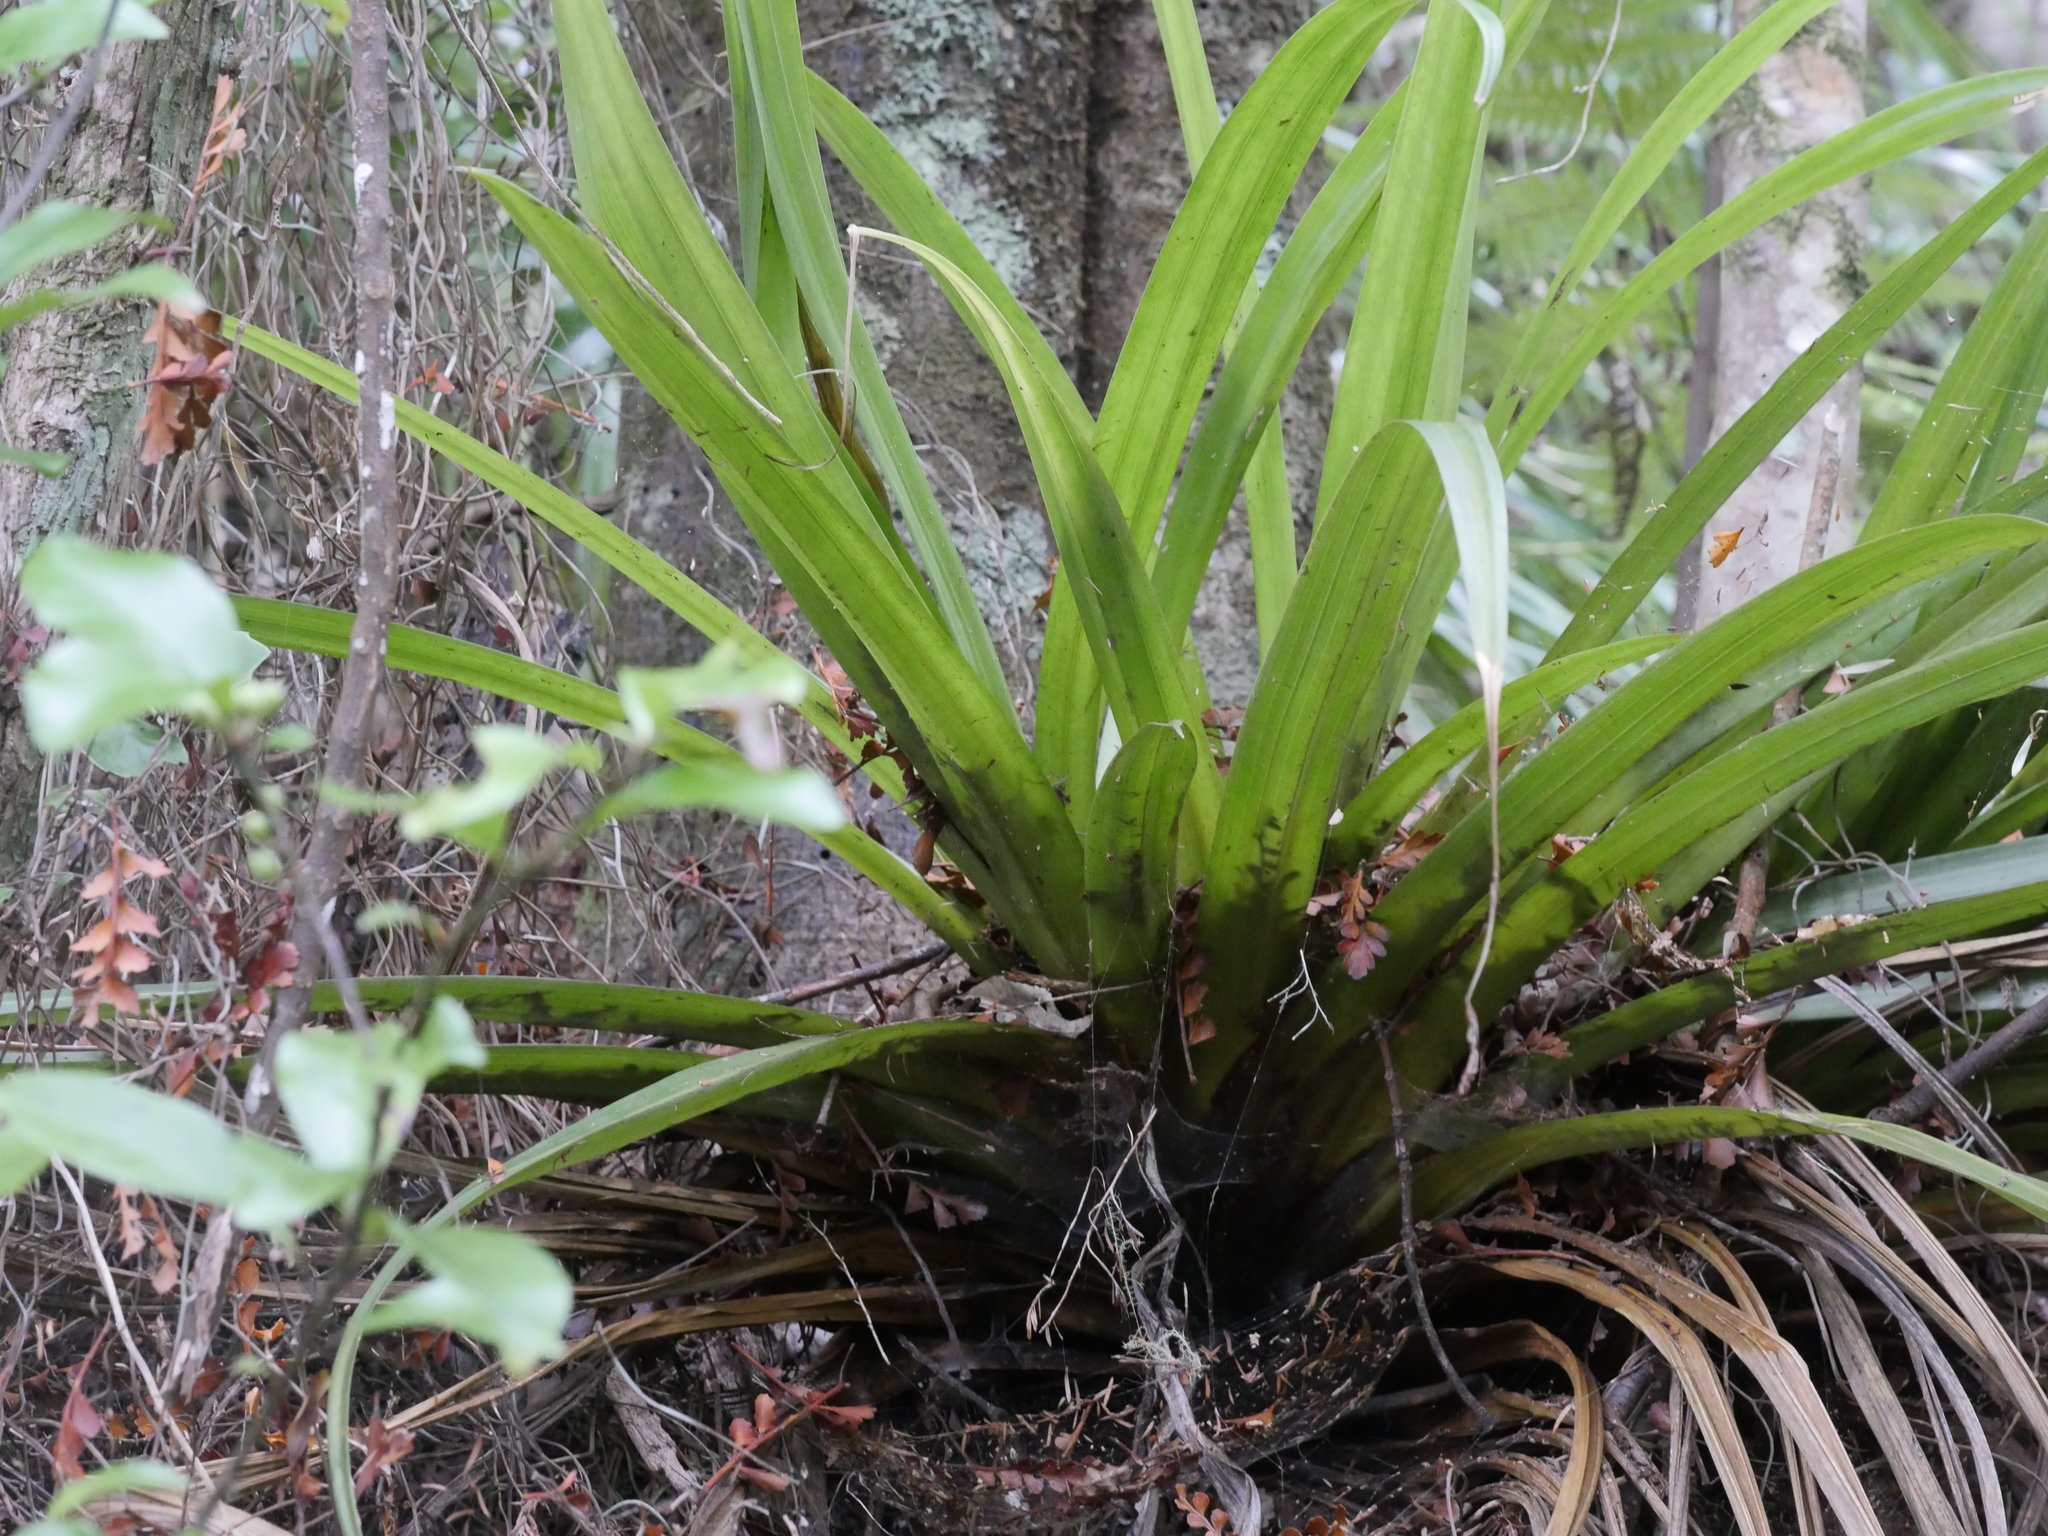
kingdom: Plantae
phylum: Tracheophyta
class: Liliopsida
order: Asparagales
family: Asteliaceae
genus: Astelia
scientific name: Astelia hastata
